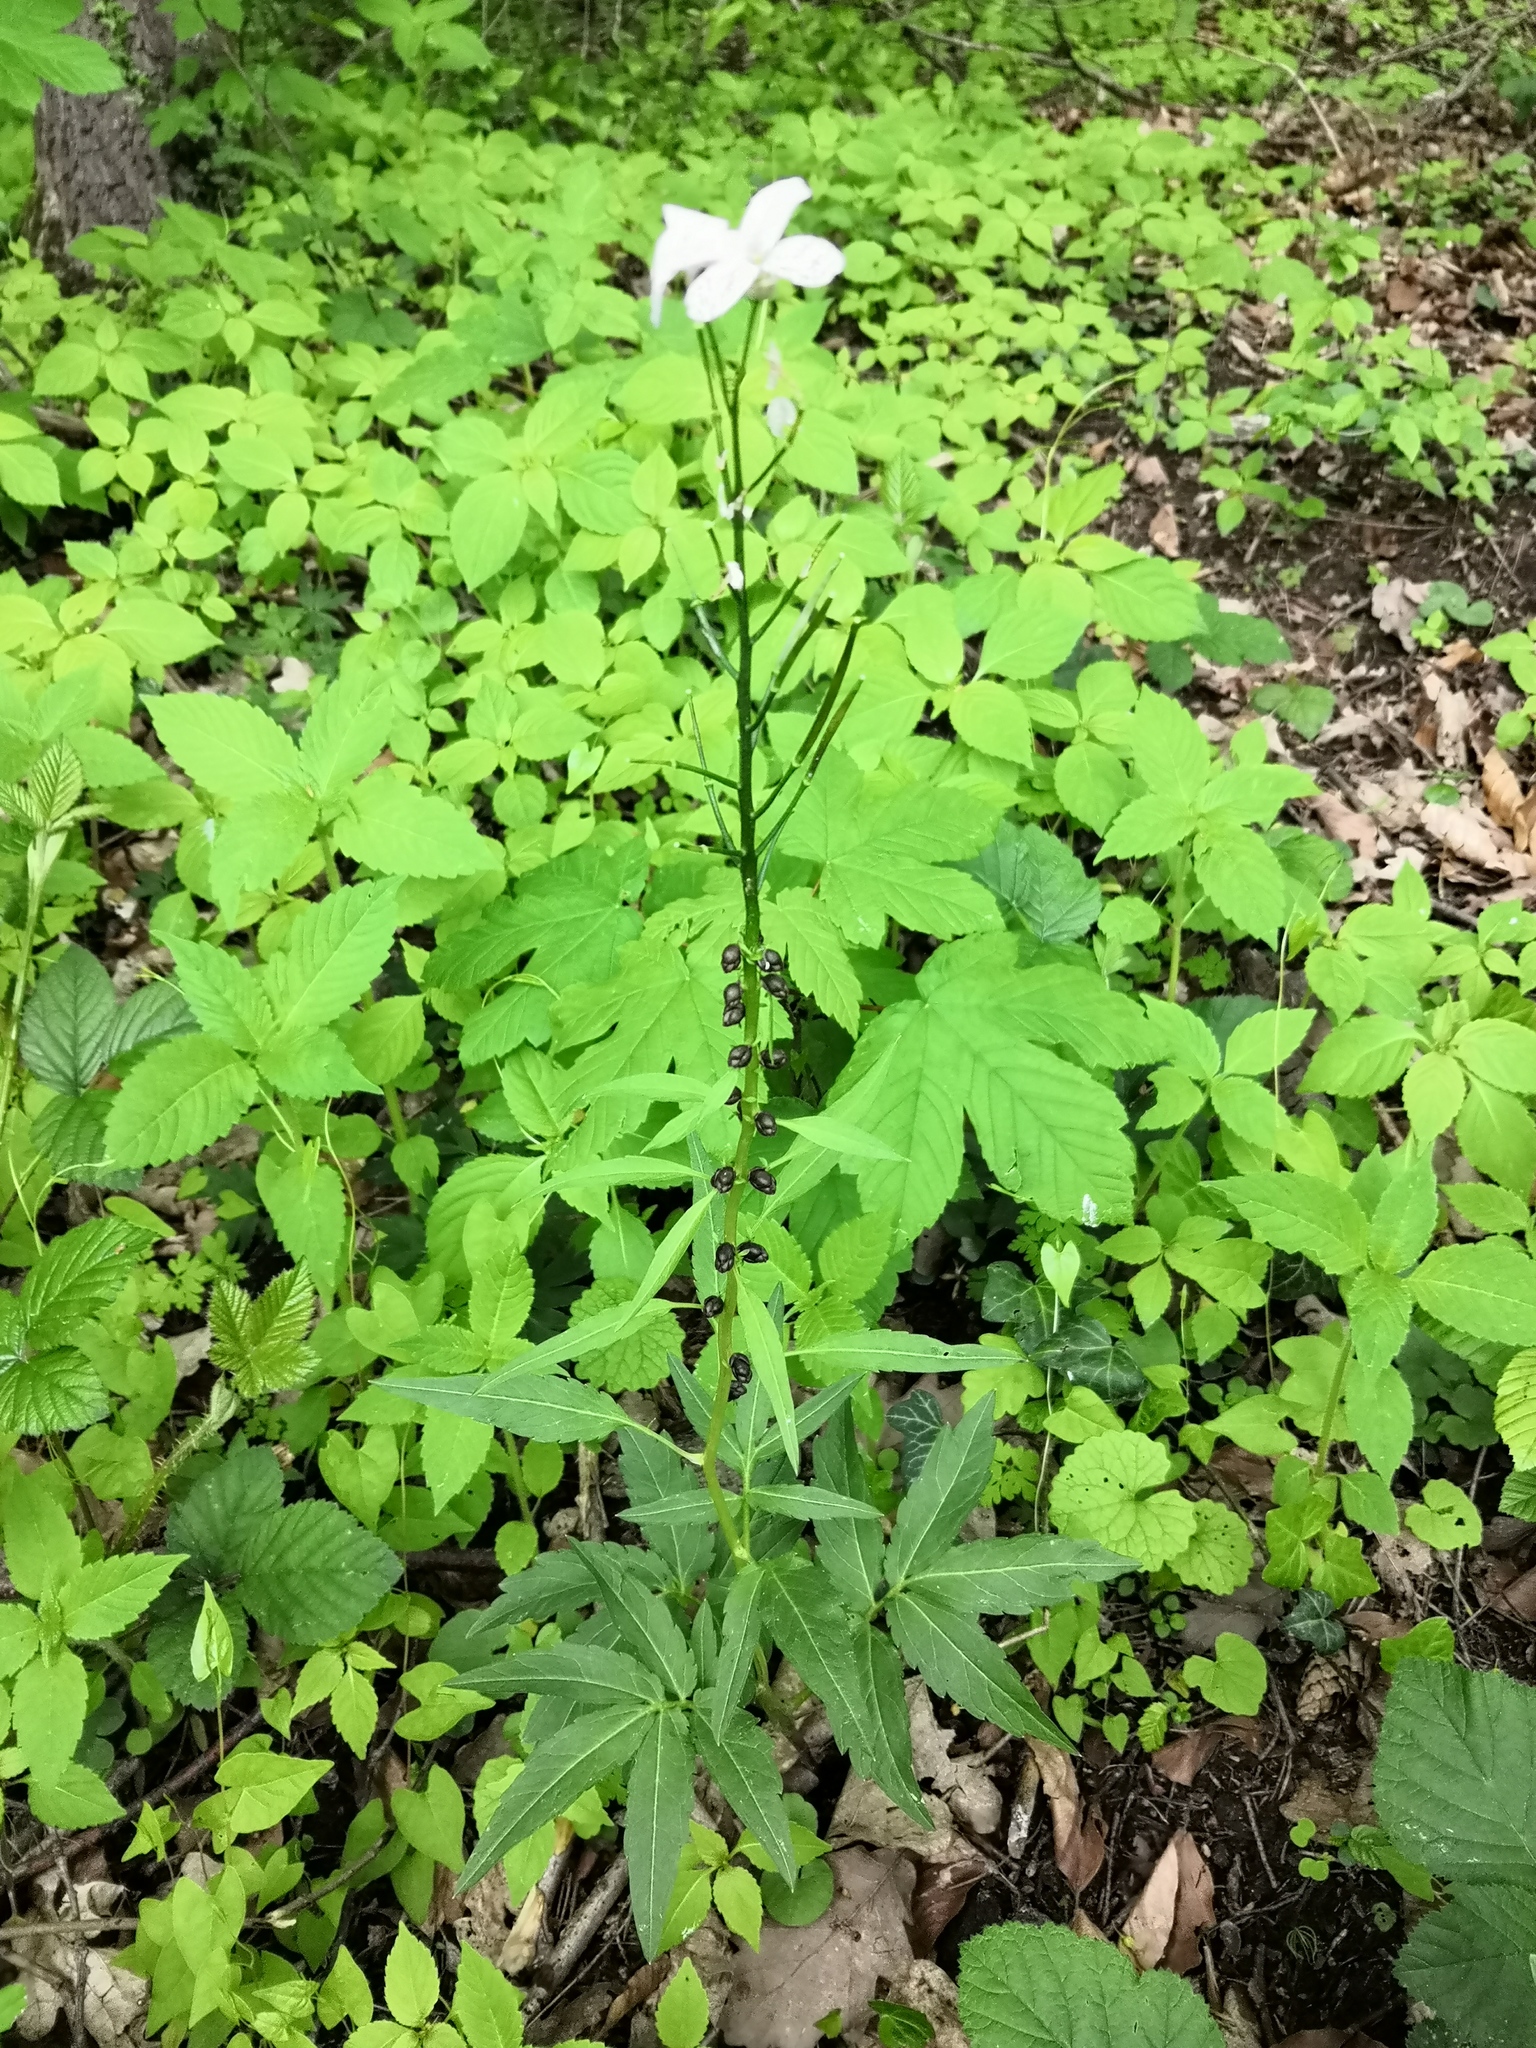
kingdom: Plantae
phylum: Tracheophyta
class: Magnoliopsida
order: Brassicales
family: Brassicaceae
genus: Cardamine
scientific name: Cardamine bulbifera
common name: Coralroot bittercress
